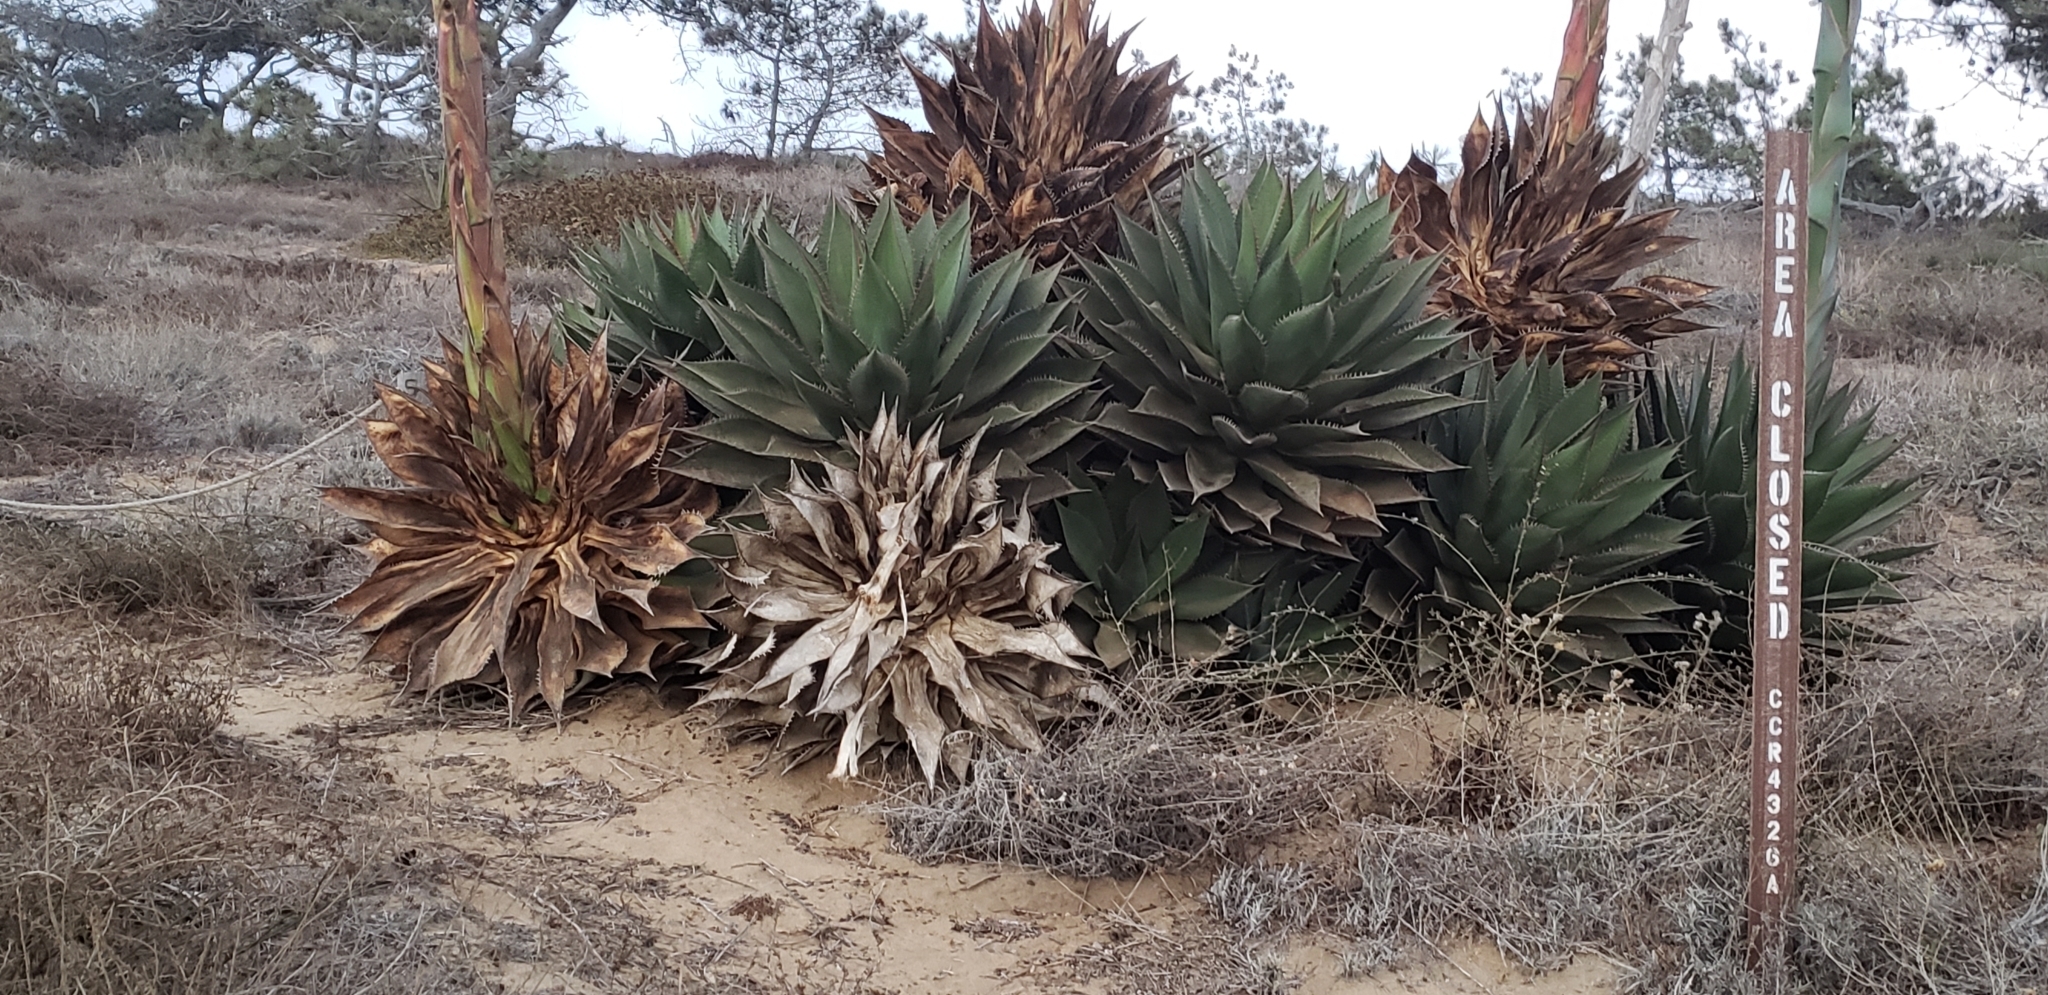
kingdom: Plantae
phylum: Tracheophyta
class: Liliopsida
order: Asparagales
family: Asparagaceae
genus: Agave
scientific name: Agave shawii
